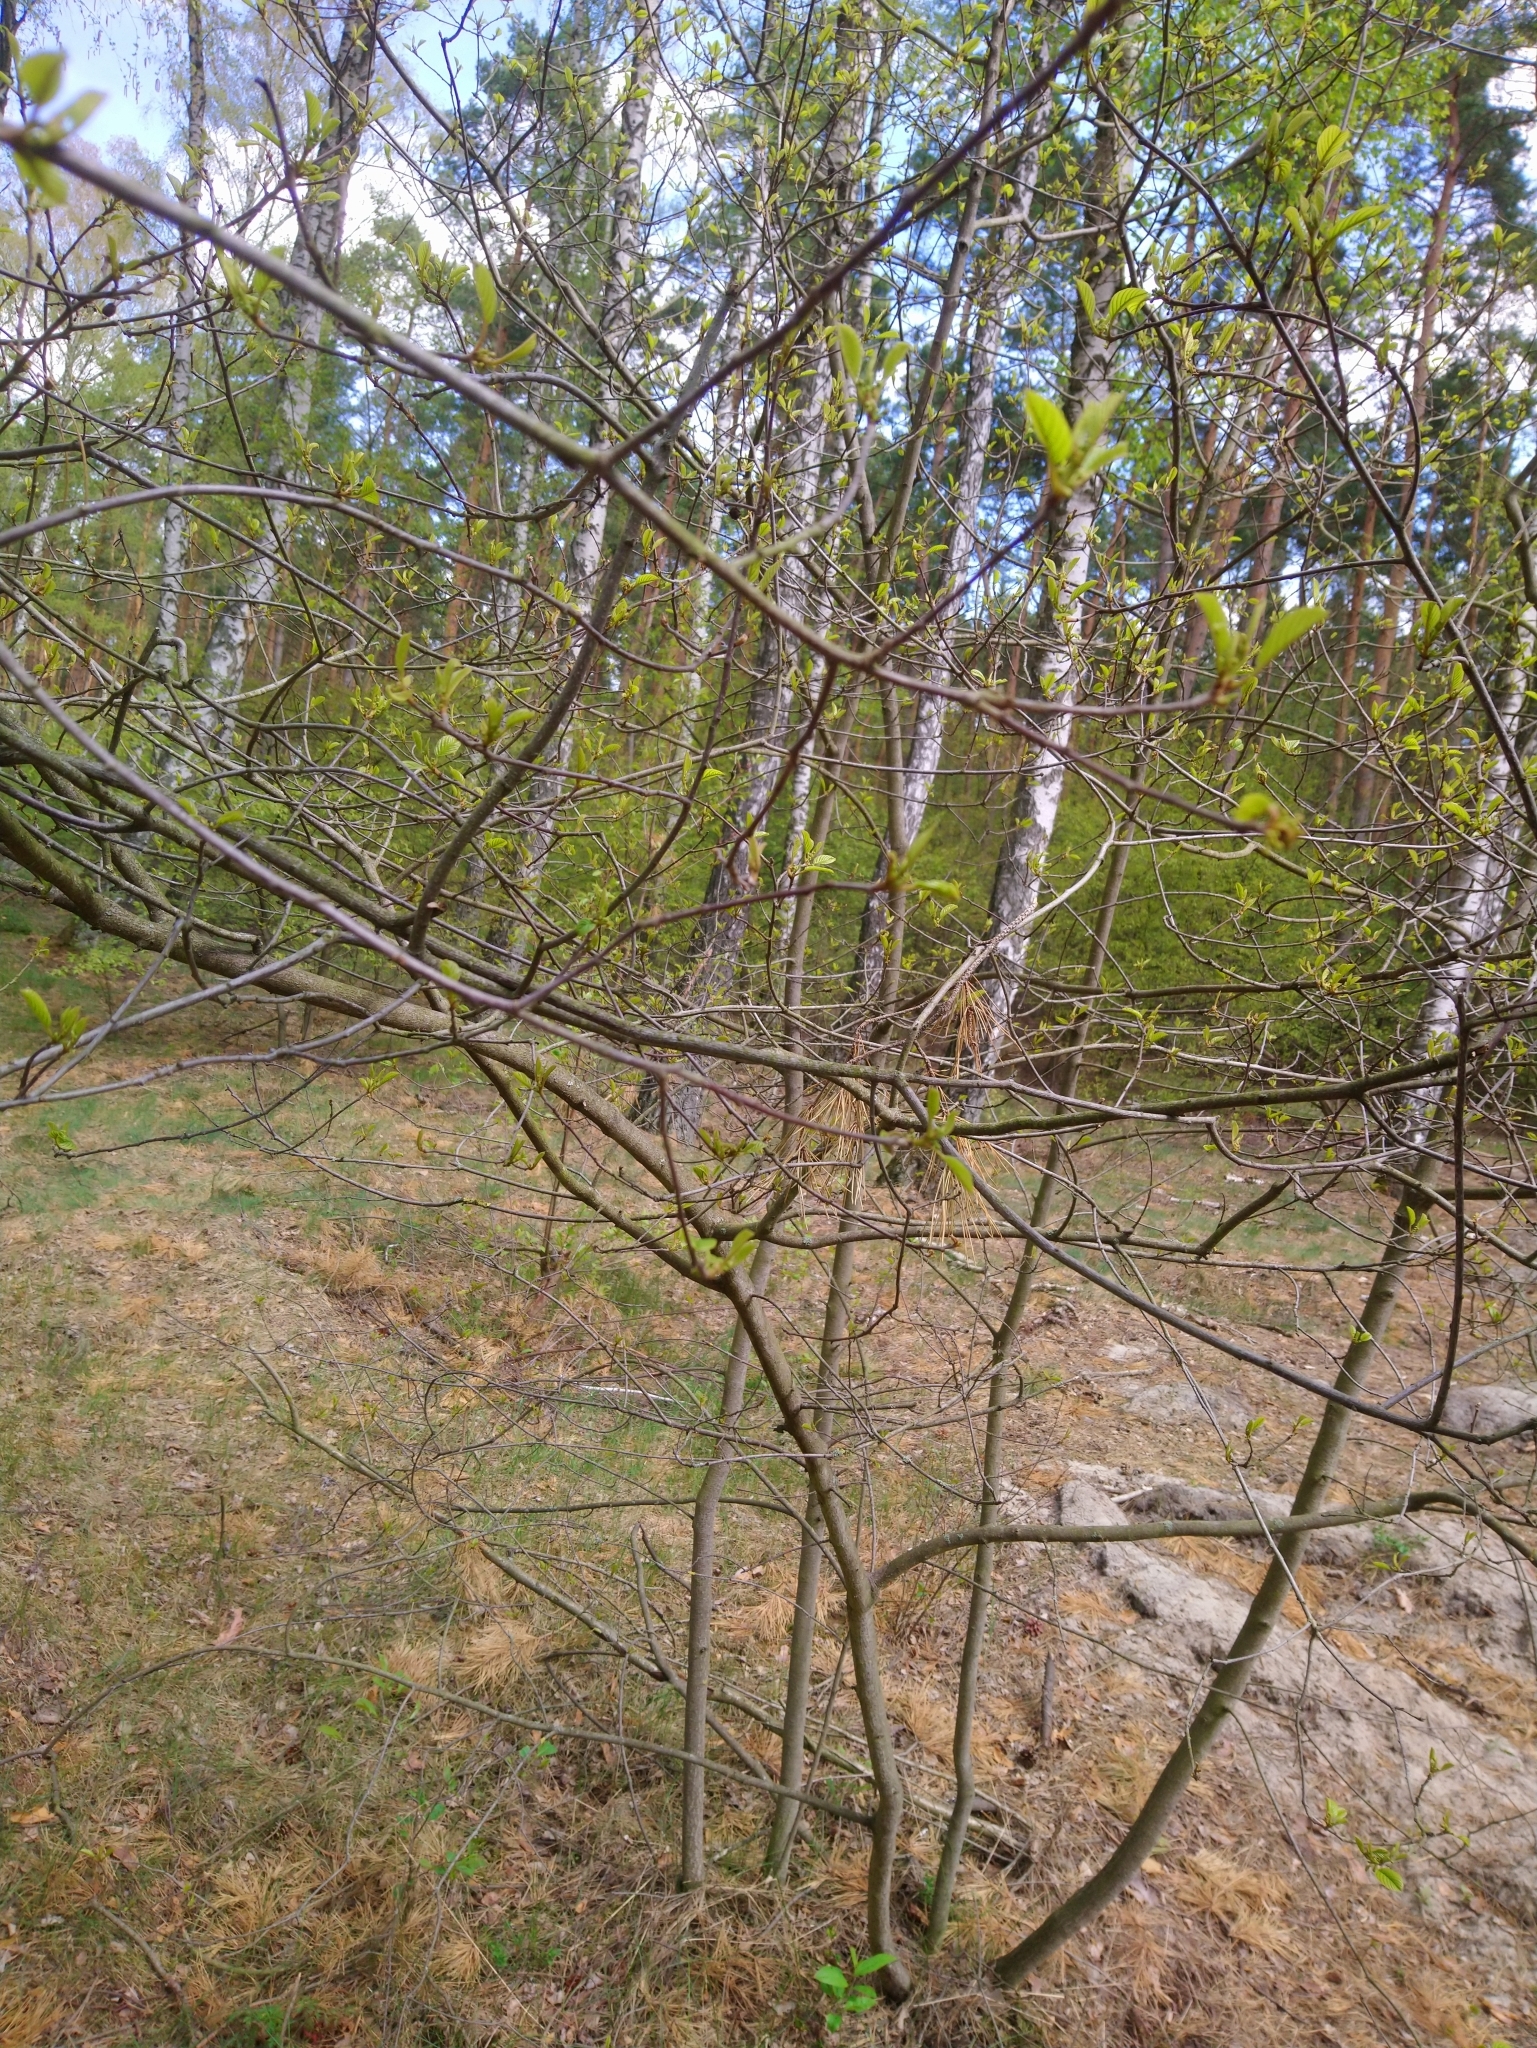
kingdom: Plantae
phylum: Tracheophyta
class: Magnoliopsida
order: Rosales
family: Rhamnaceae
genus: Frangula
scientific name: Frangula alnus
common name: Alder buckthorn
